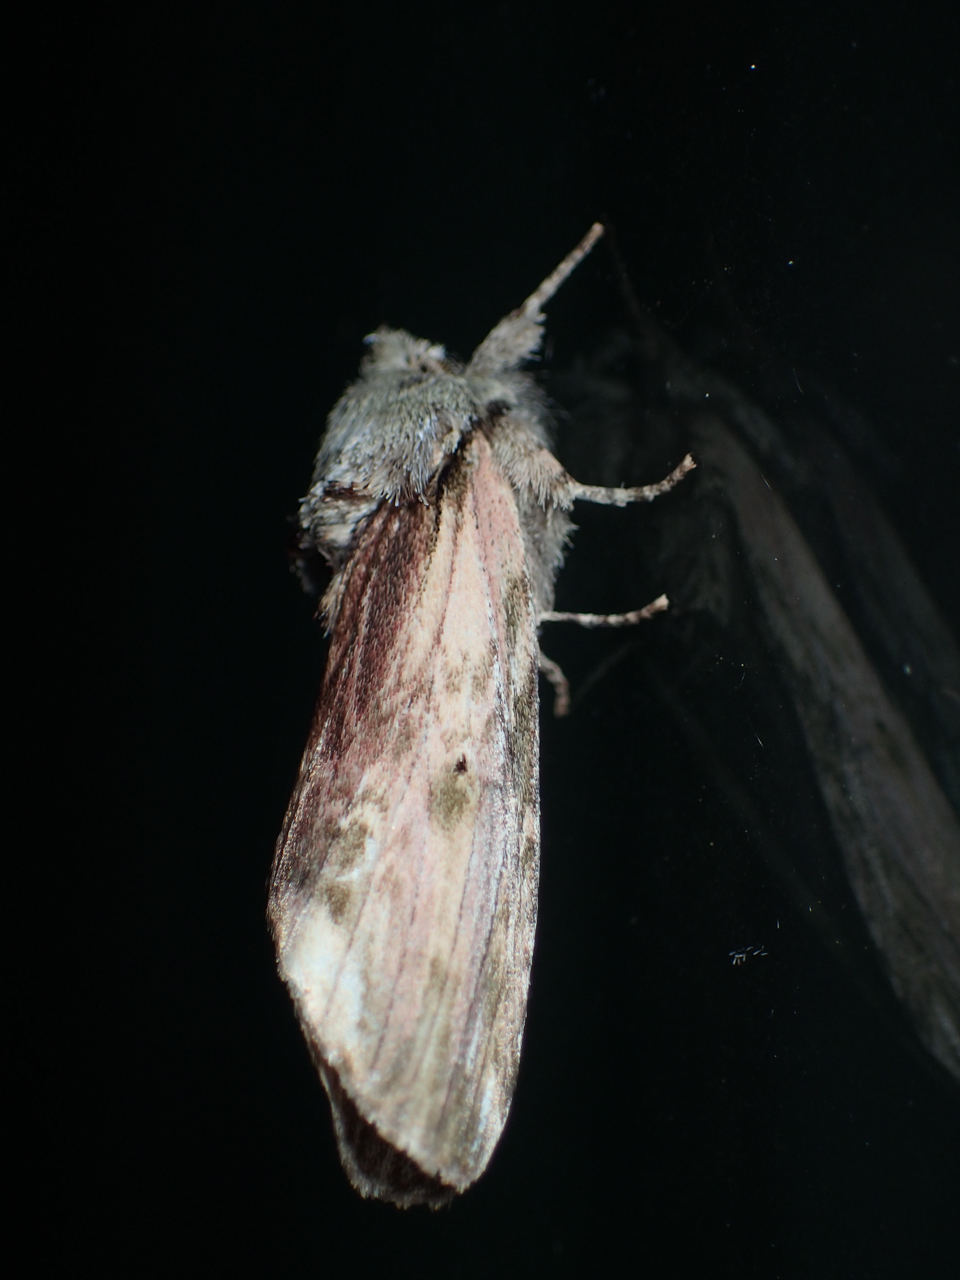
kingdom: Animalia
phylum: Arthropoda
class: Insecta
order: Lepidoptera
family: Notodontidae
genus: Schizura
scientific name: Schizura
